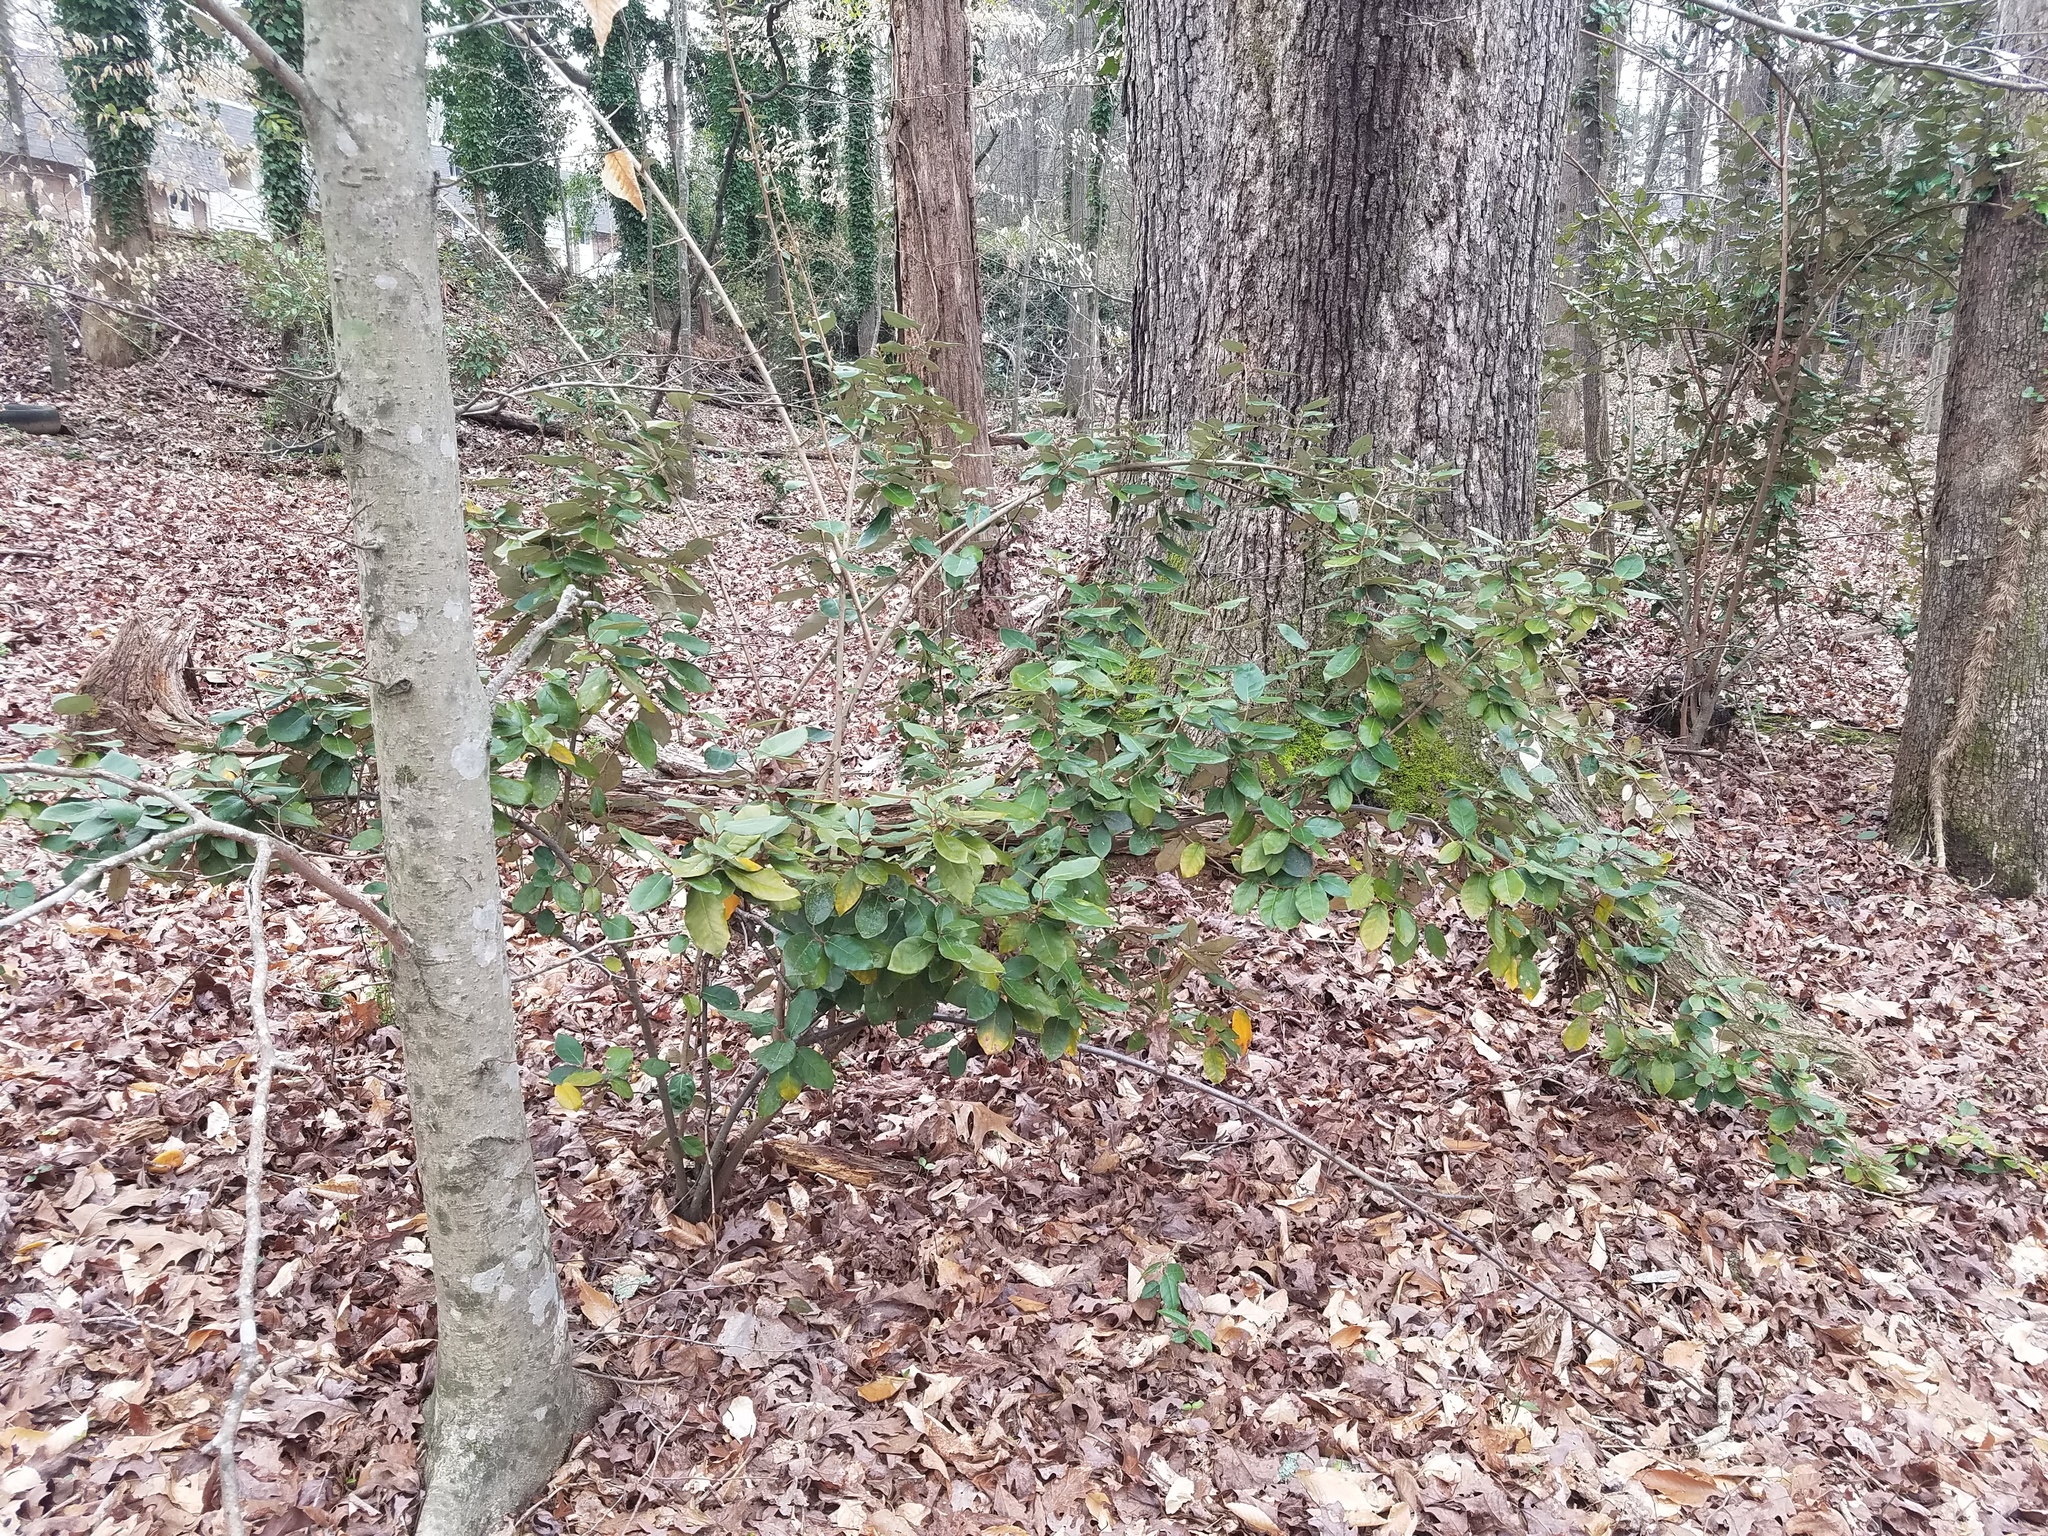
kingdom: Plantae
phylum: Tracheophyta
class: Magnoliopsida
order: Rosales
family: Elaeagnaceae
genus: Elaeagnus
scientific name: Elaeagnus pungens
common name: Spiny oleaster
